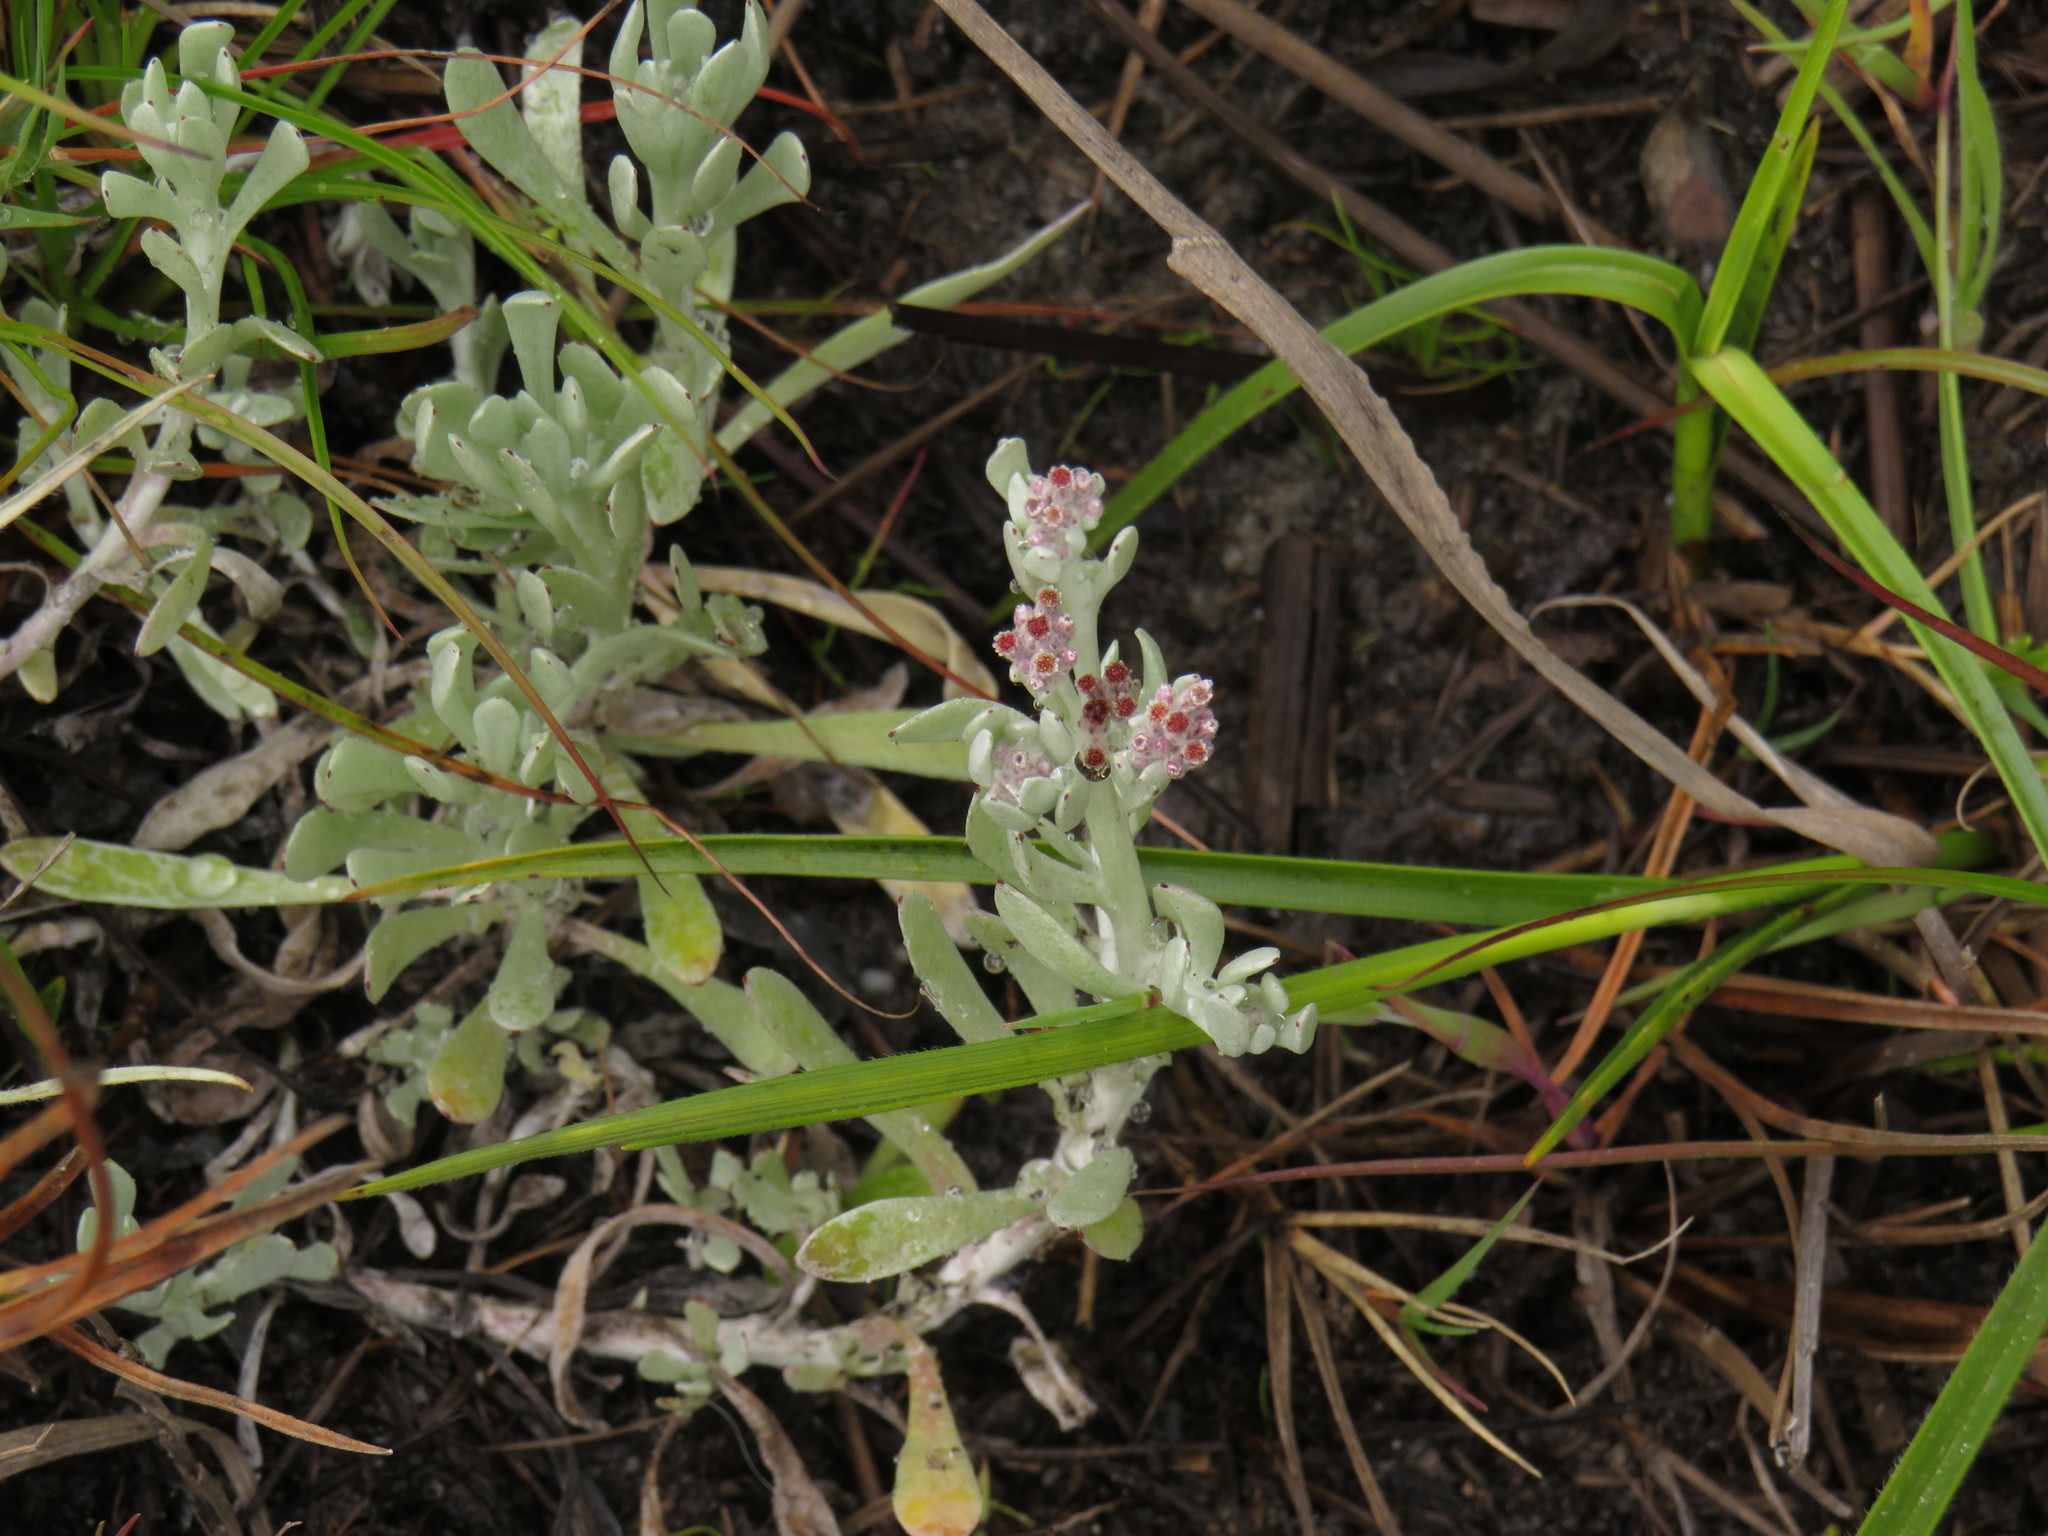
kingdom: Plantae
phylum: Tracheophyta
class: Magnoliopsida
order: Asterales
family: Asteraceae
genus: Vellereophyton
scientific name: Vellereophyton dealbatum
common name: White-cudweed
